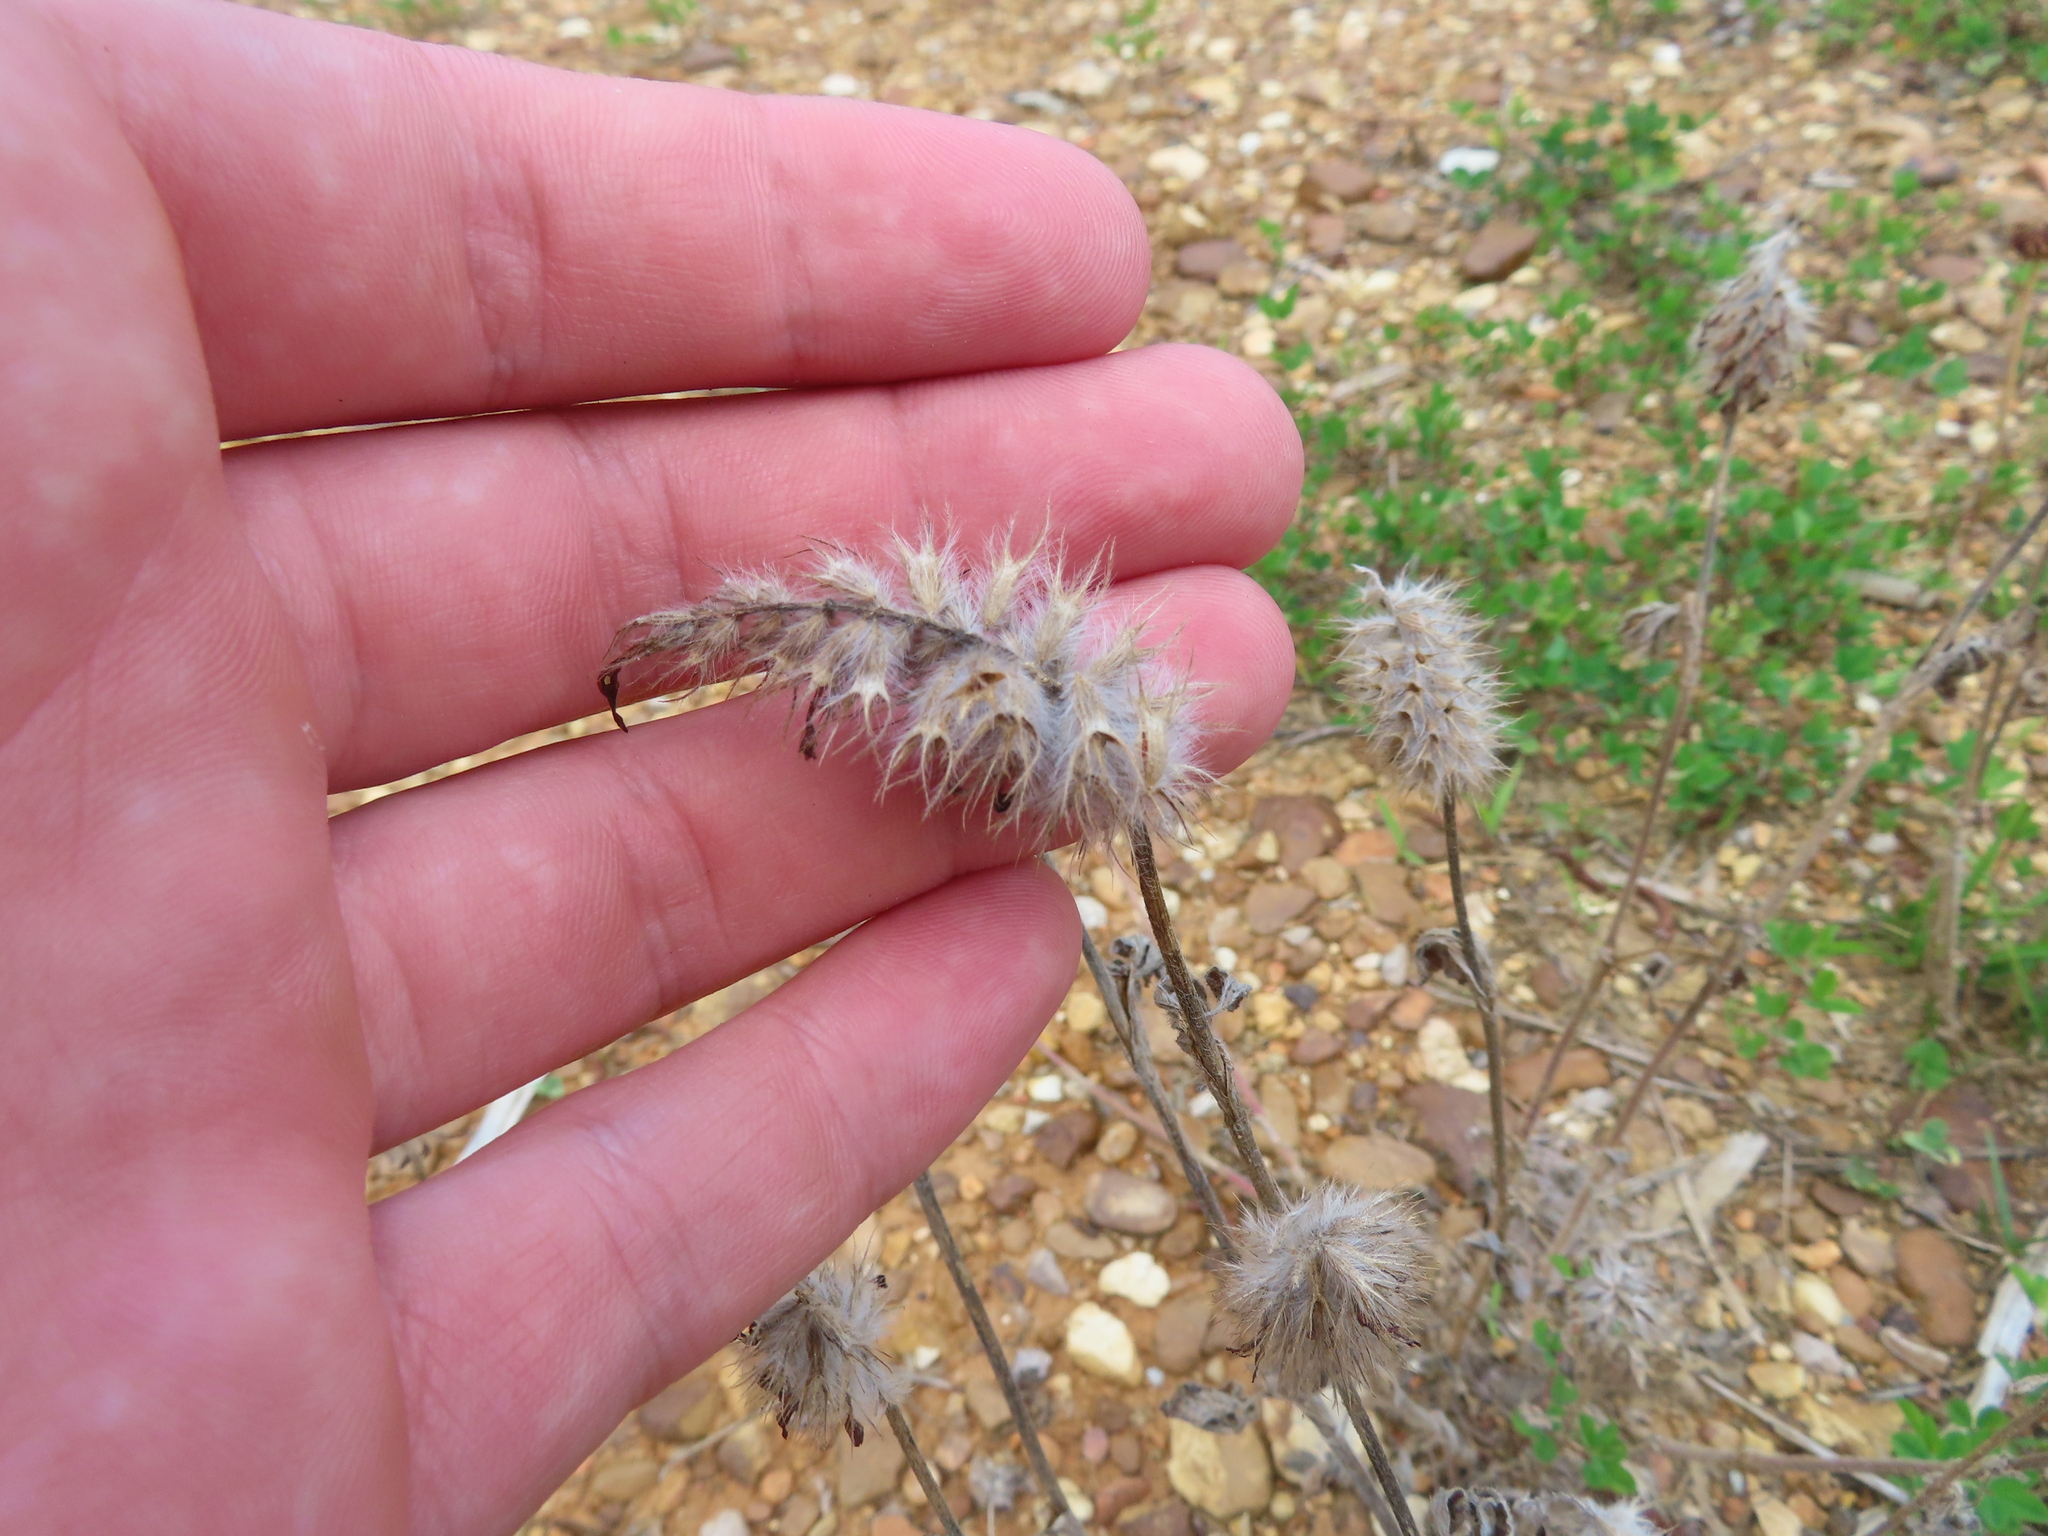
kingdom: Plantae
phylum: Tracheophyta
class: Magnoliopsida
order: Fabales
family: Fabaceae
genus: Trifolium
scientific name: Trifolium incarnatum
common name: Crimson clover
